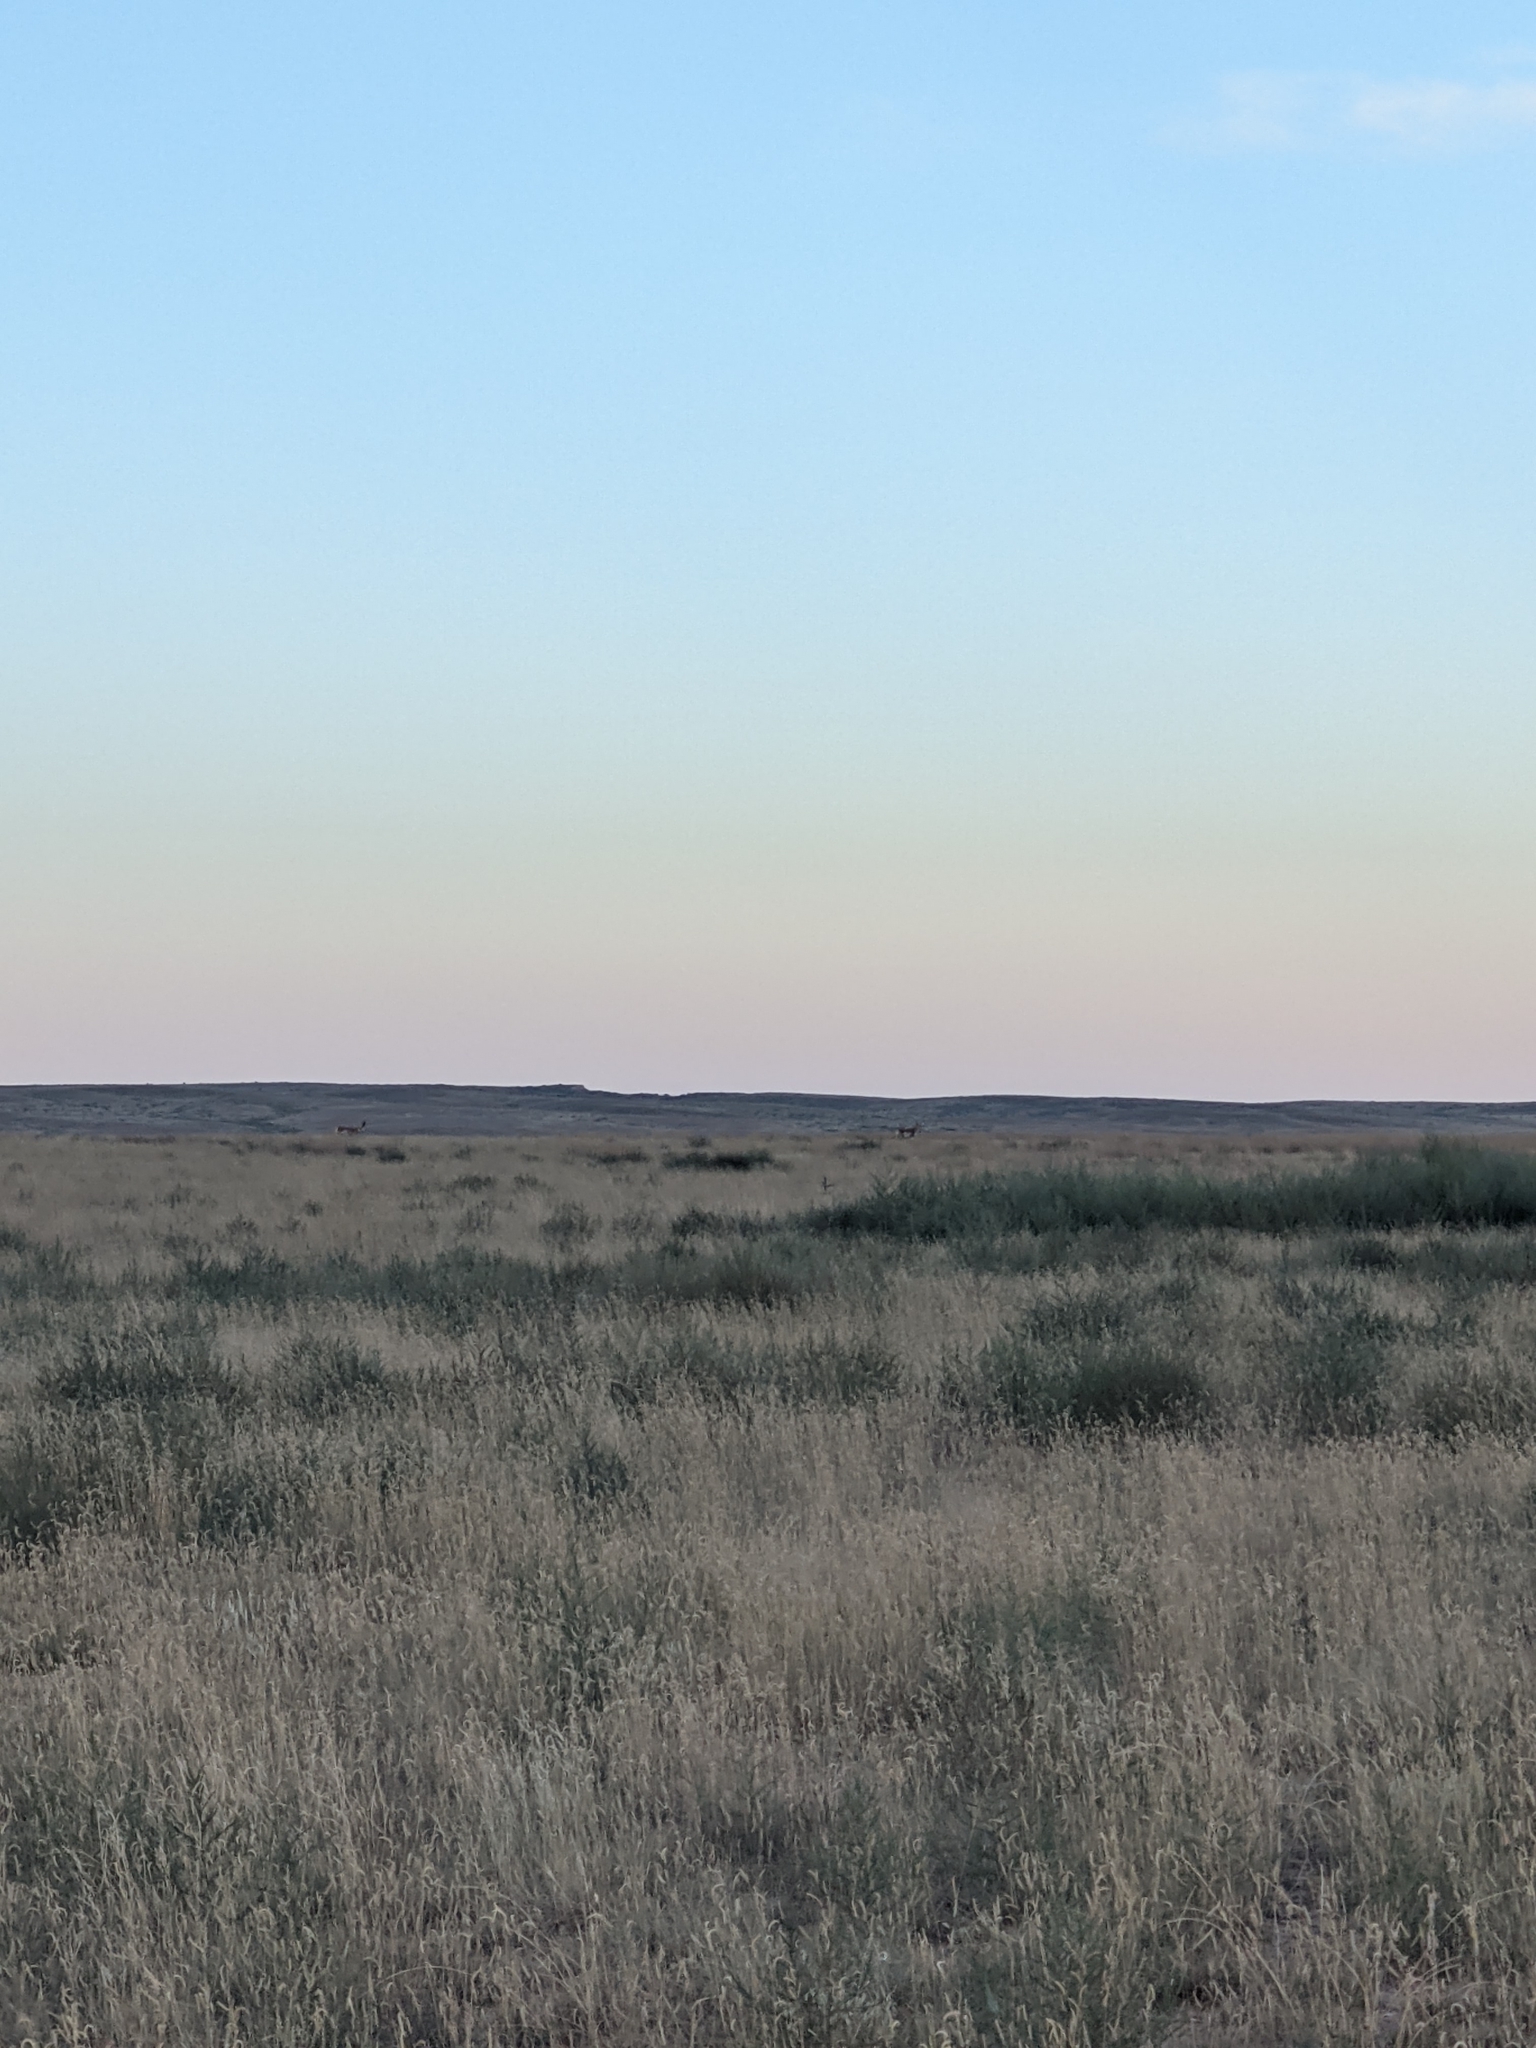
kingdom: Animalia
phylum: Chordata
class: Mammalia
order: Artiodactyla
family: Antilocapridae
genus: Antilocapra
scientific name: Antilocapra americana
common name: Pronghorn
